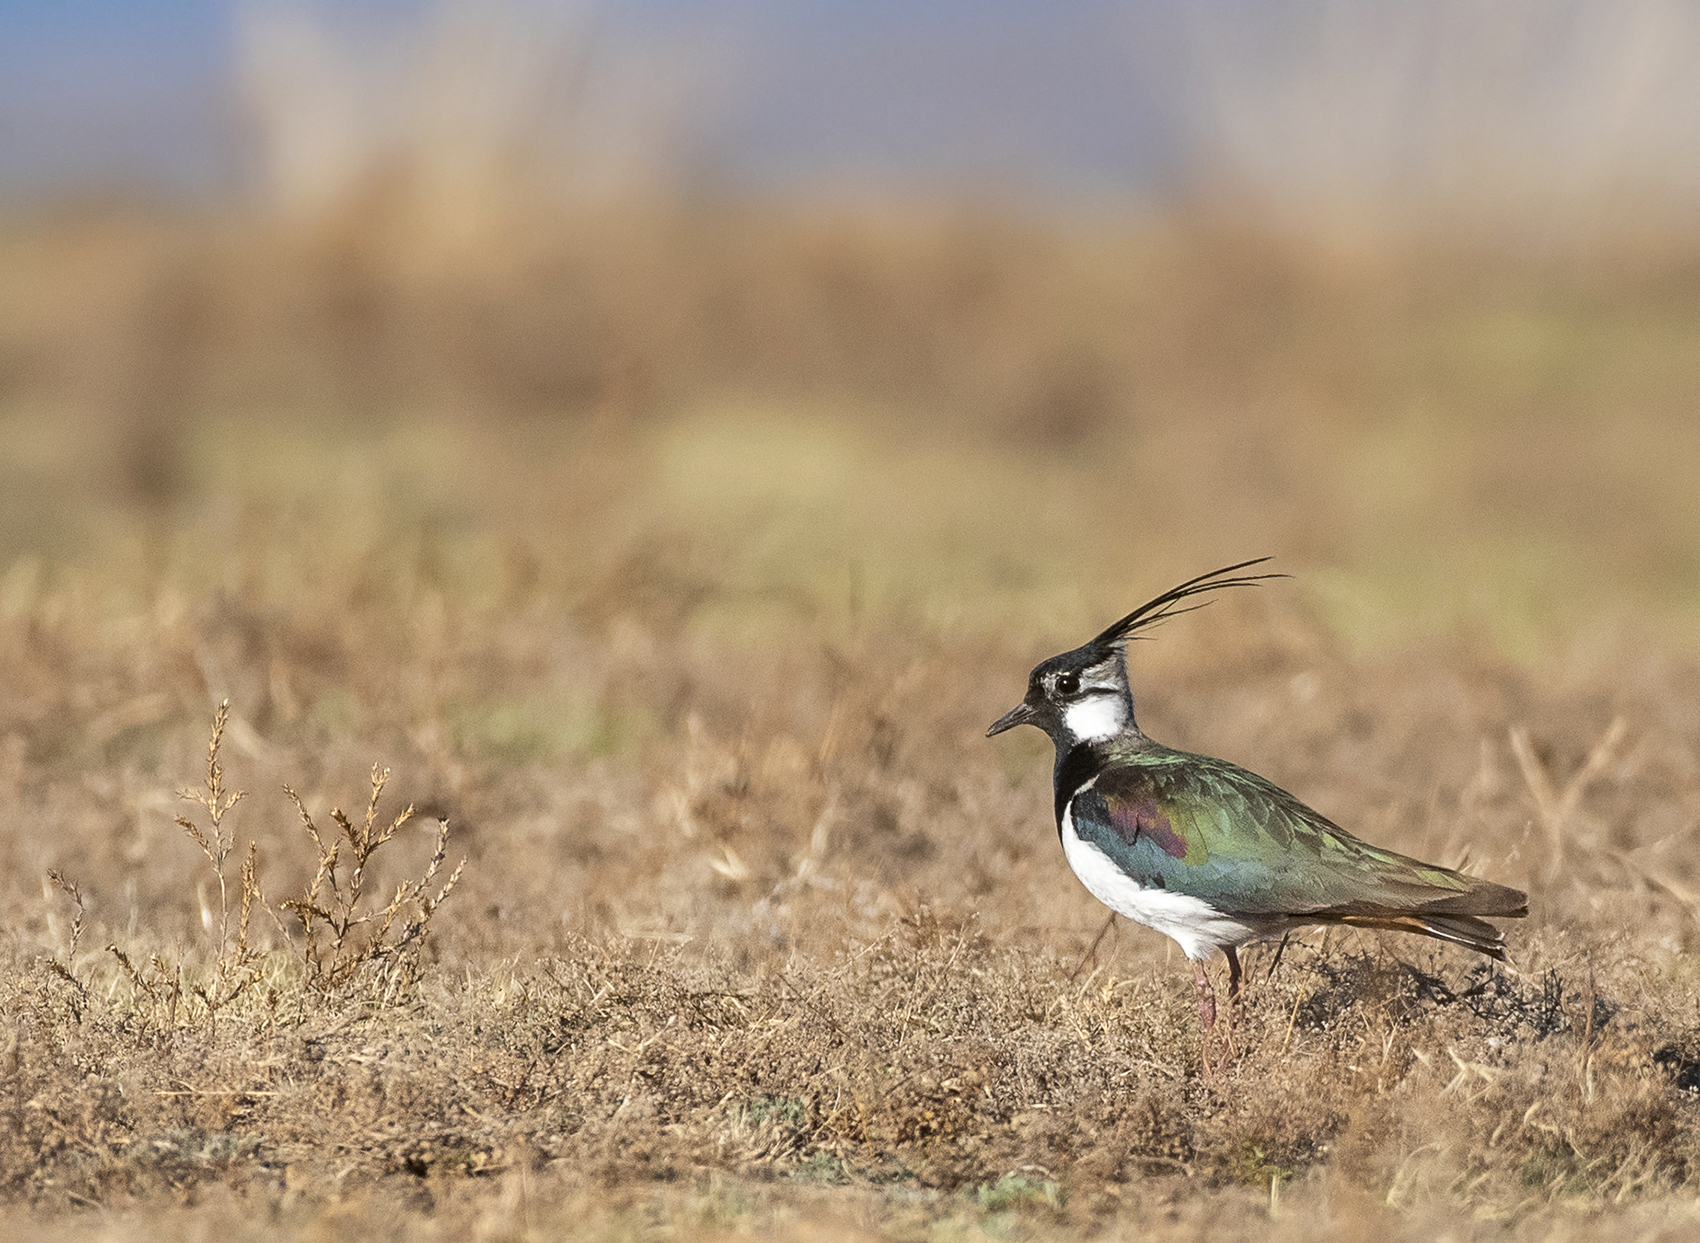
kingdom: Animalia
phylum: Chordata
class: Aves
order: Charadriiformes
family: Charadriidae
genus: Vanellus
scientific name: Vanellus vanellus
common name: Northern lapwing
